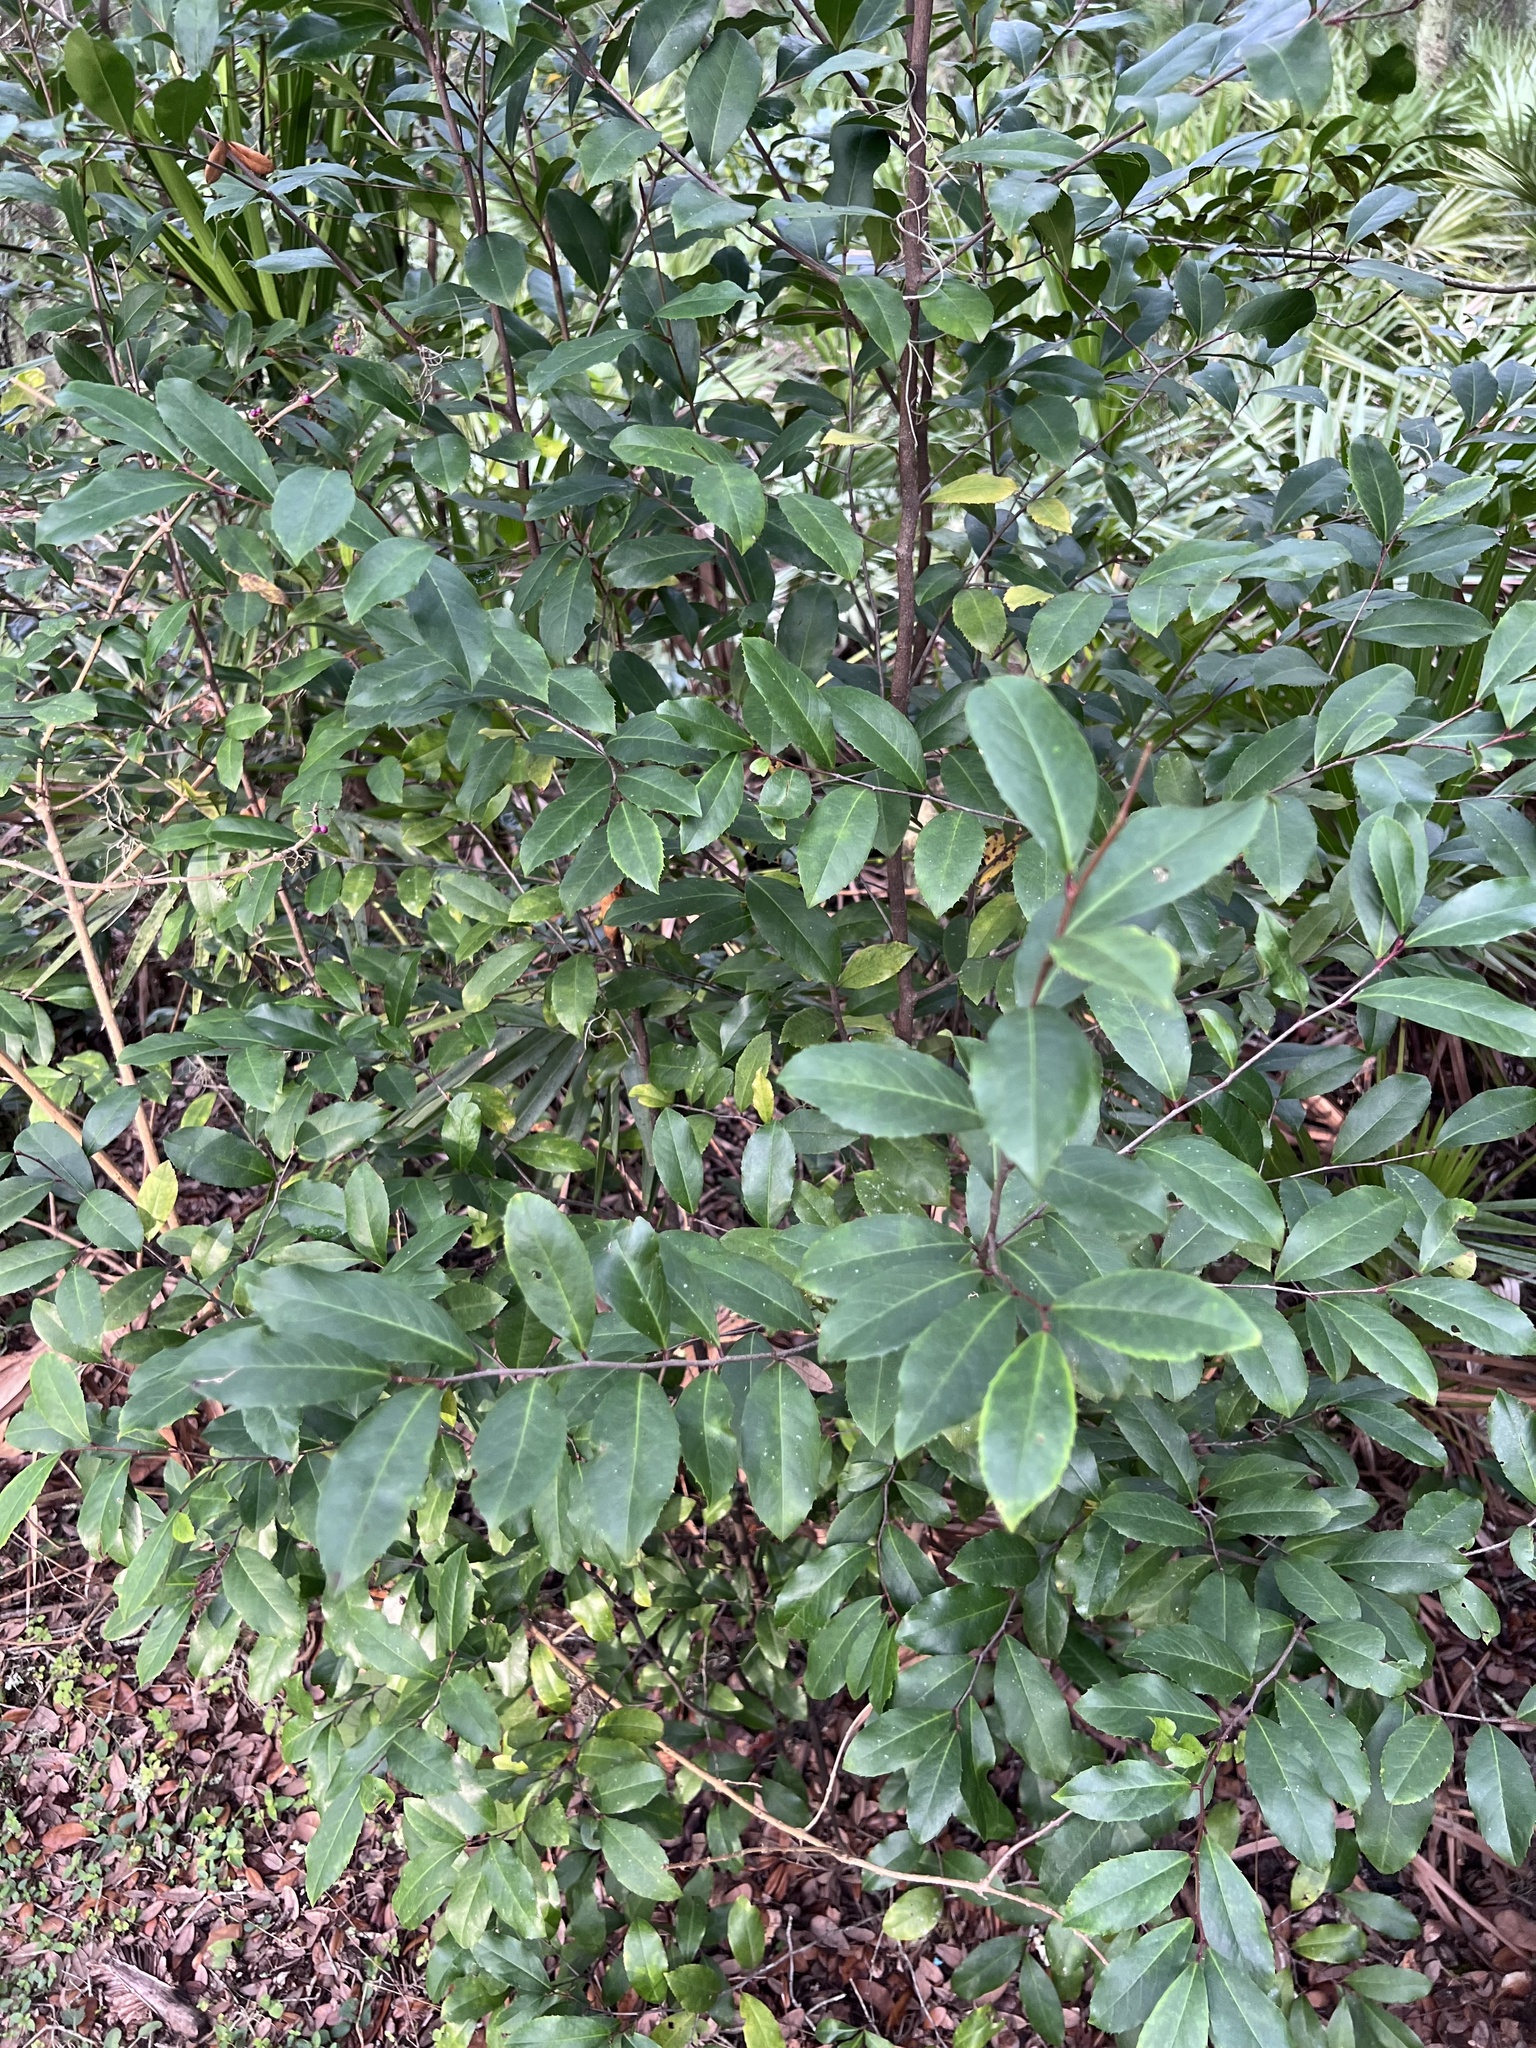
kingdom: Plantae
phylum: Tracheophyta
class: Magnoliopsida
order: Rosales
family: Rosaceae
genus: Prunus
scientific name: Prunus caroliniana
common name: Carolina laurel cherry
